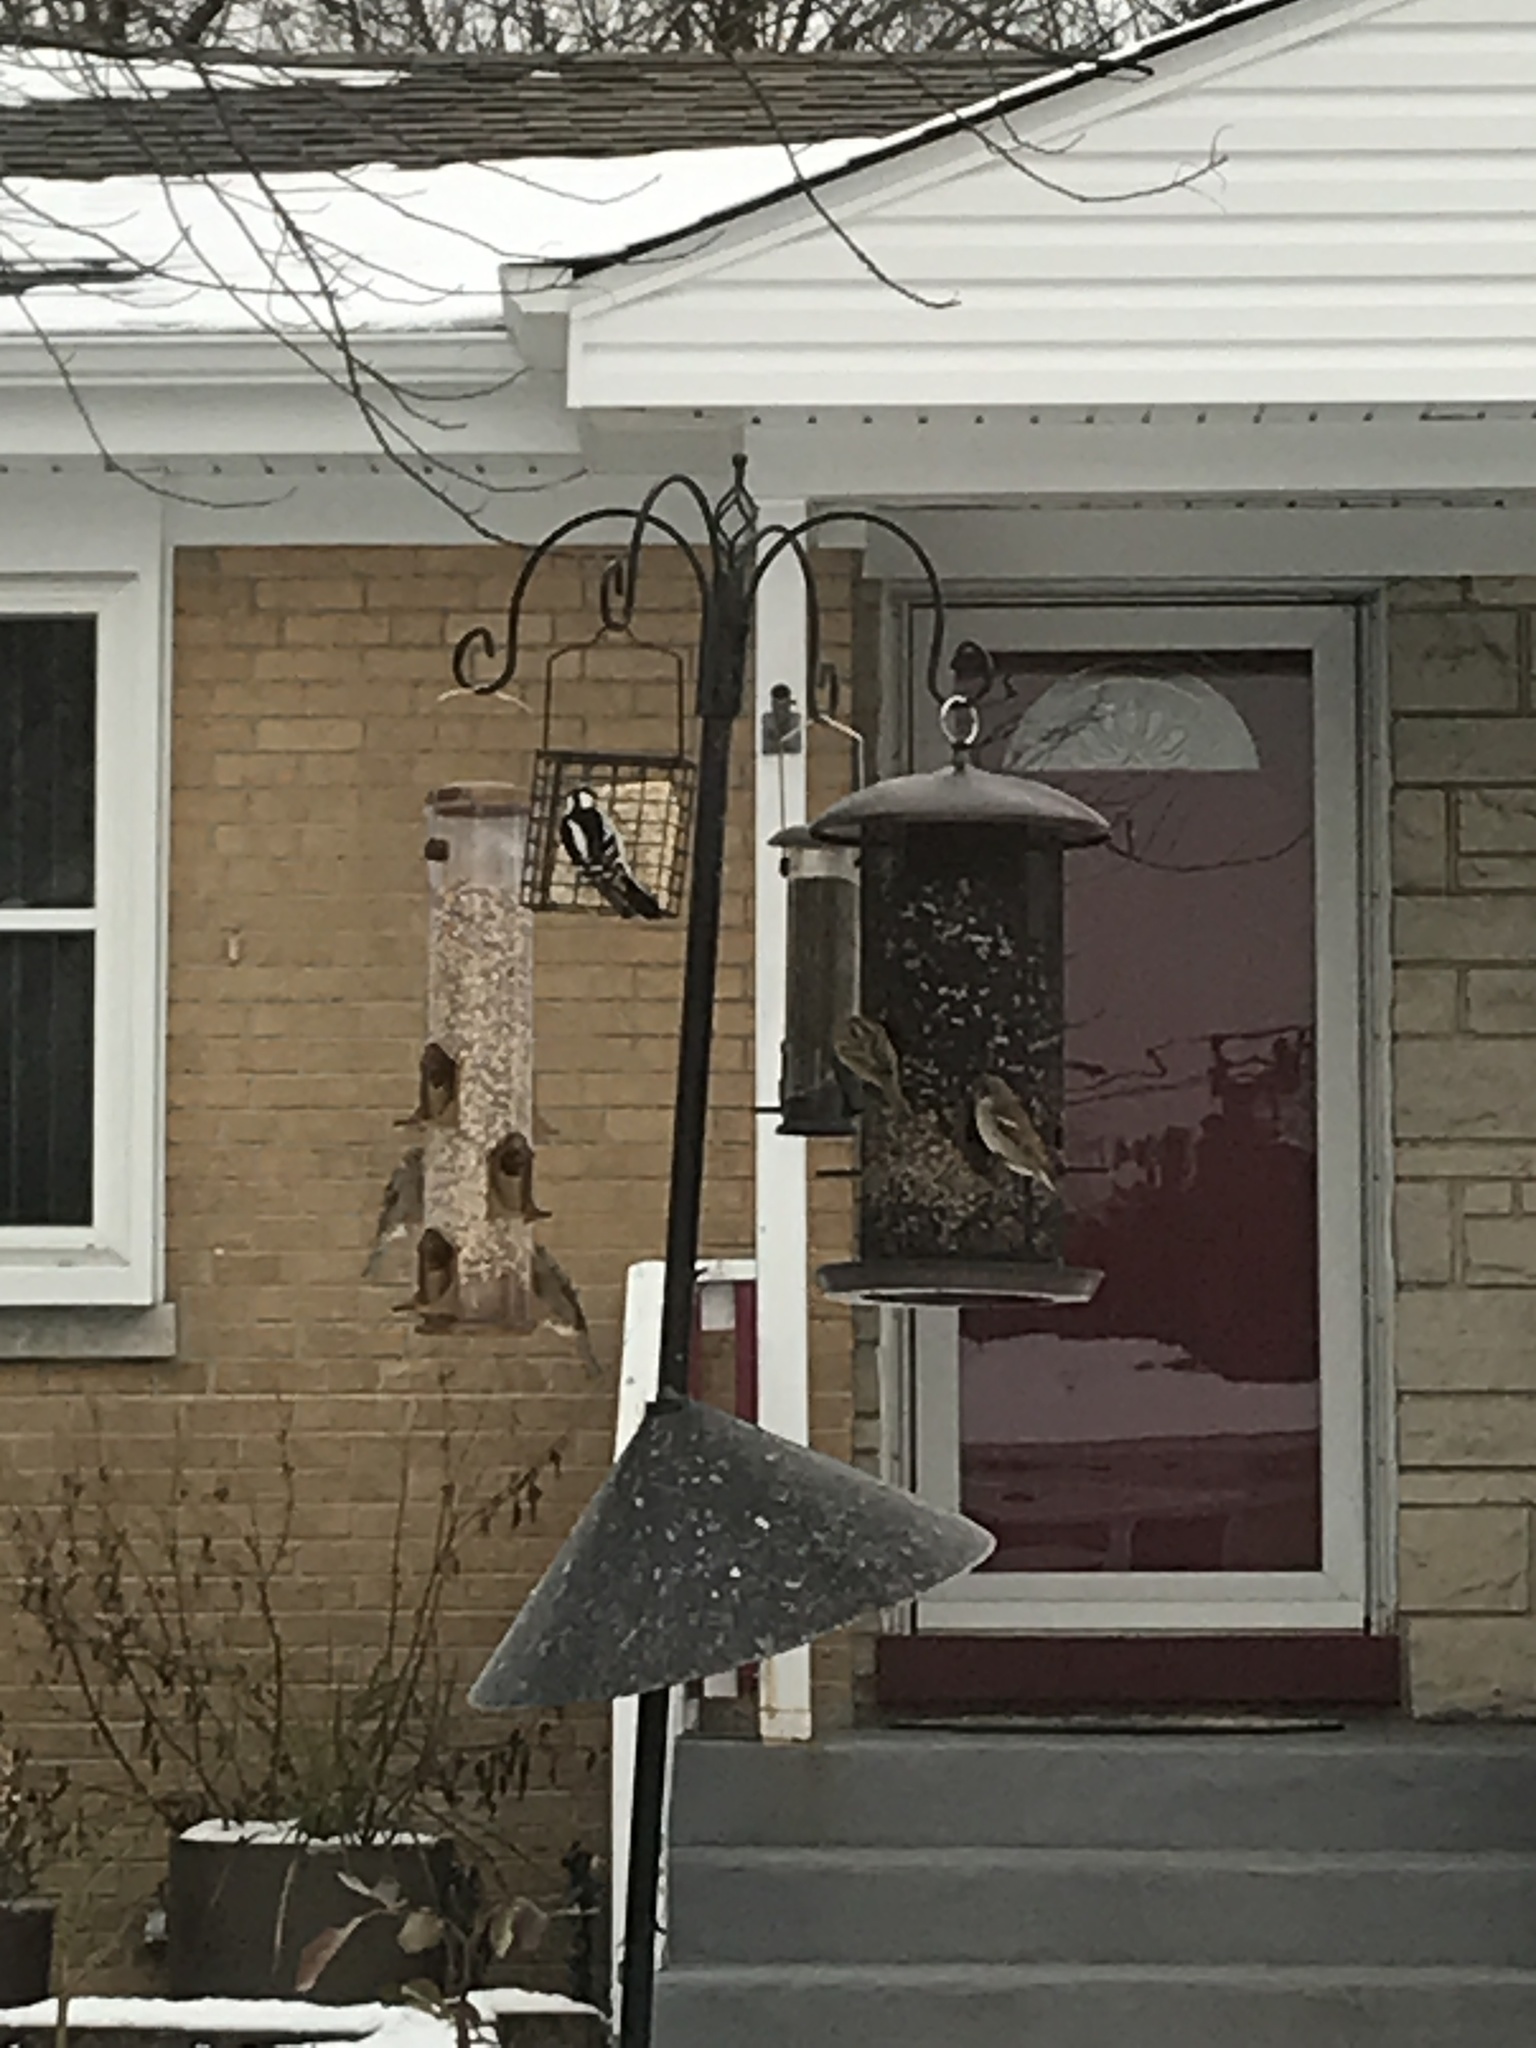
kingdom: Animalia
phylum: Chordata
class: Aves
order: Piciformes
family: Picidae
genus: Dryobates
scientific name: Dryobates pubescens
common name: Downy woodpecker
